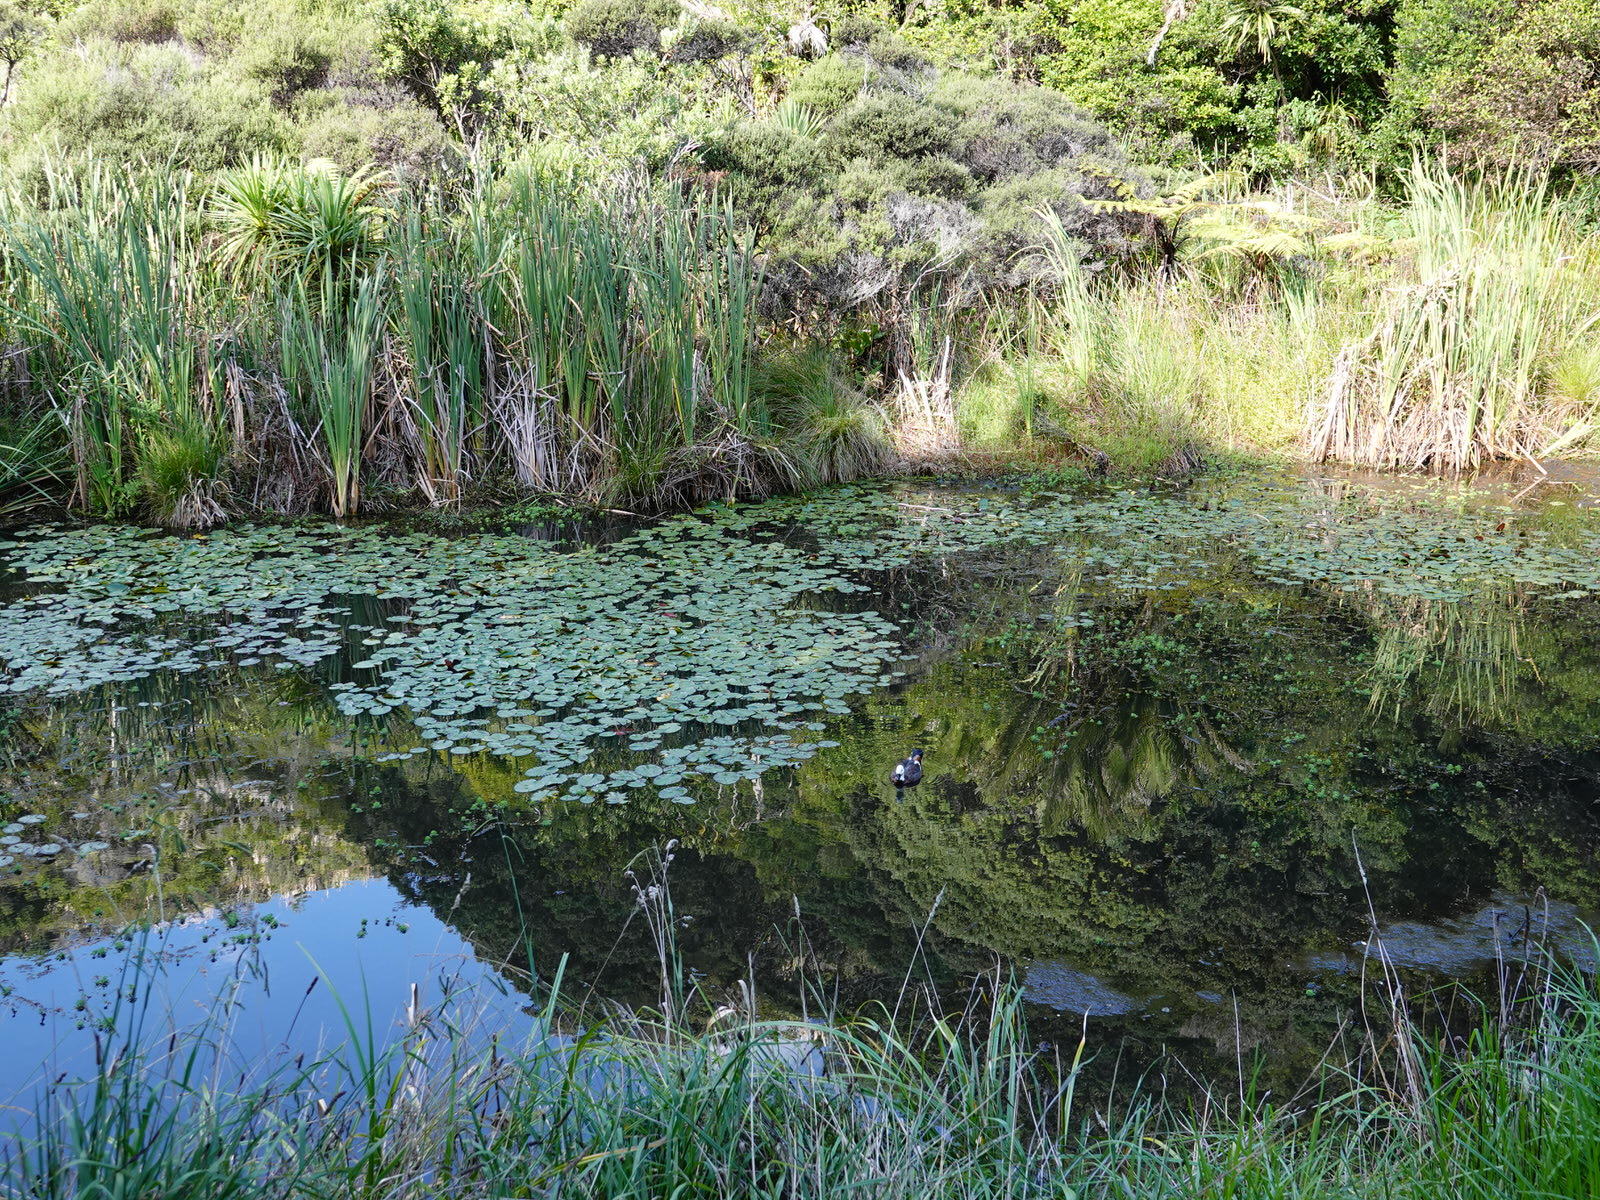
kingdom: Animalia
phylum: Chordata
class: Aves
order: Anseriformes
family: Anatidae
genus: Tadorna
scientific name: Tadorna variegata
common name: Paradise shelduck
